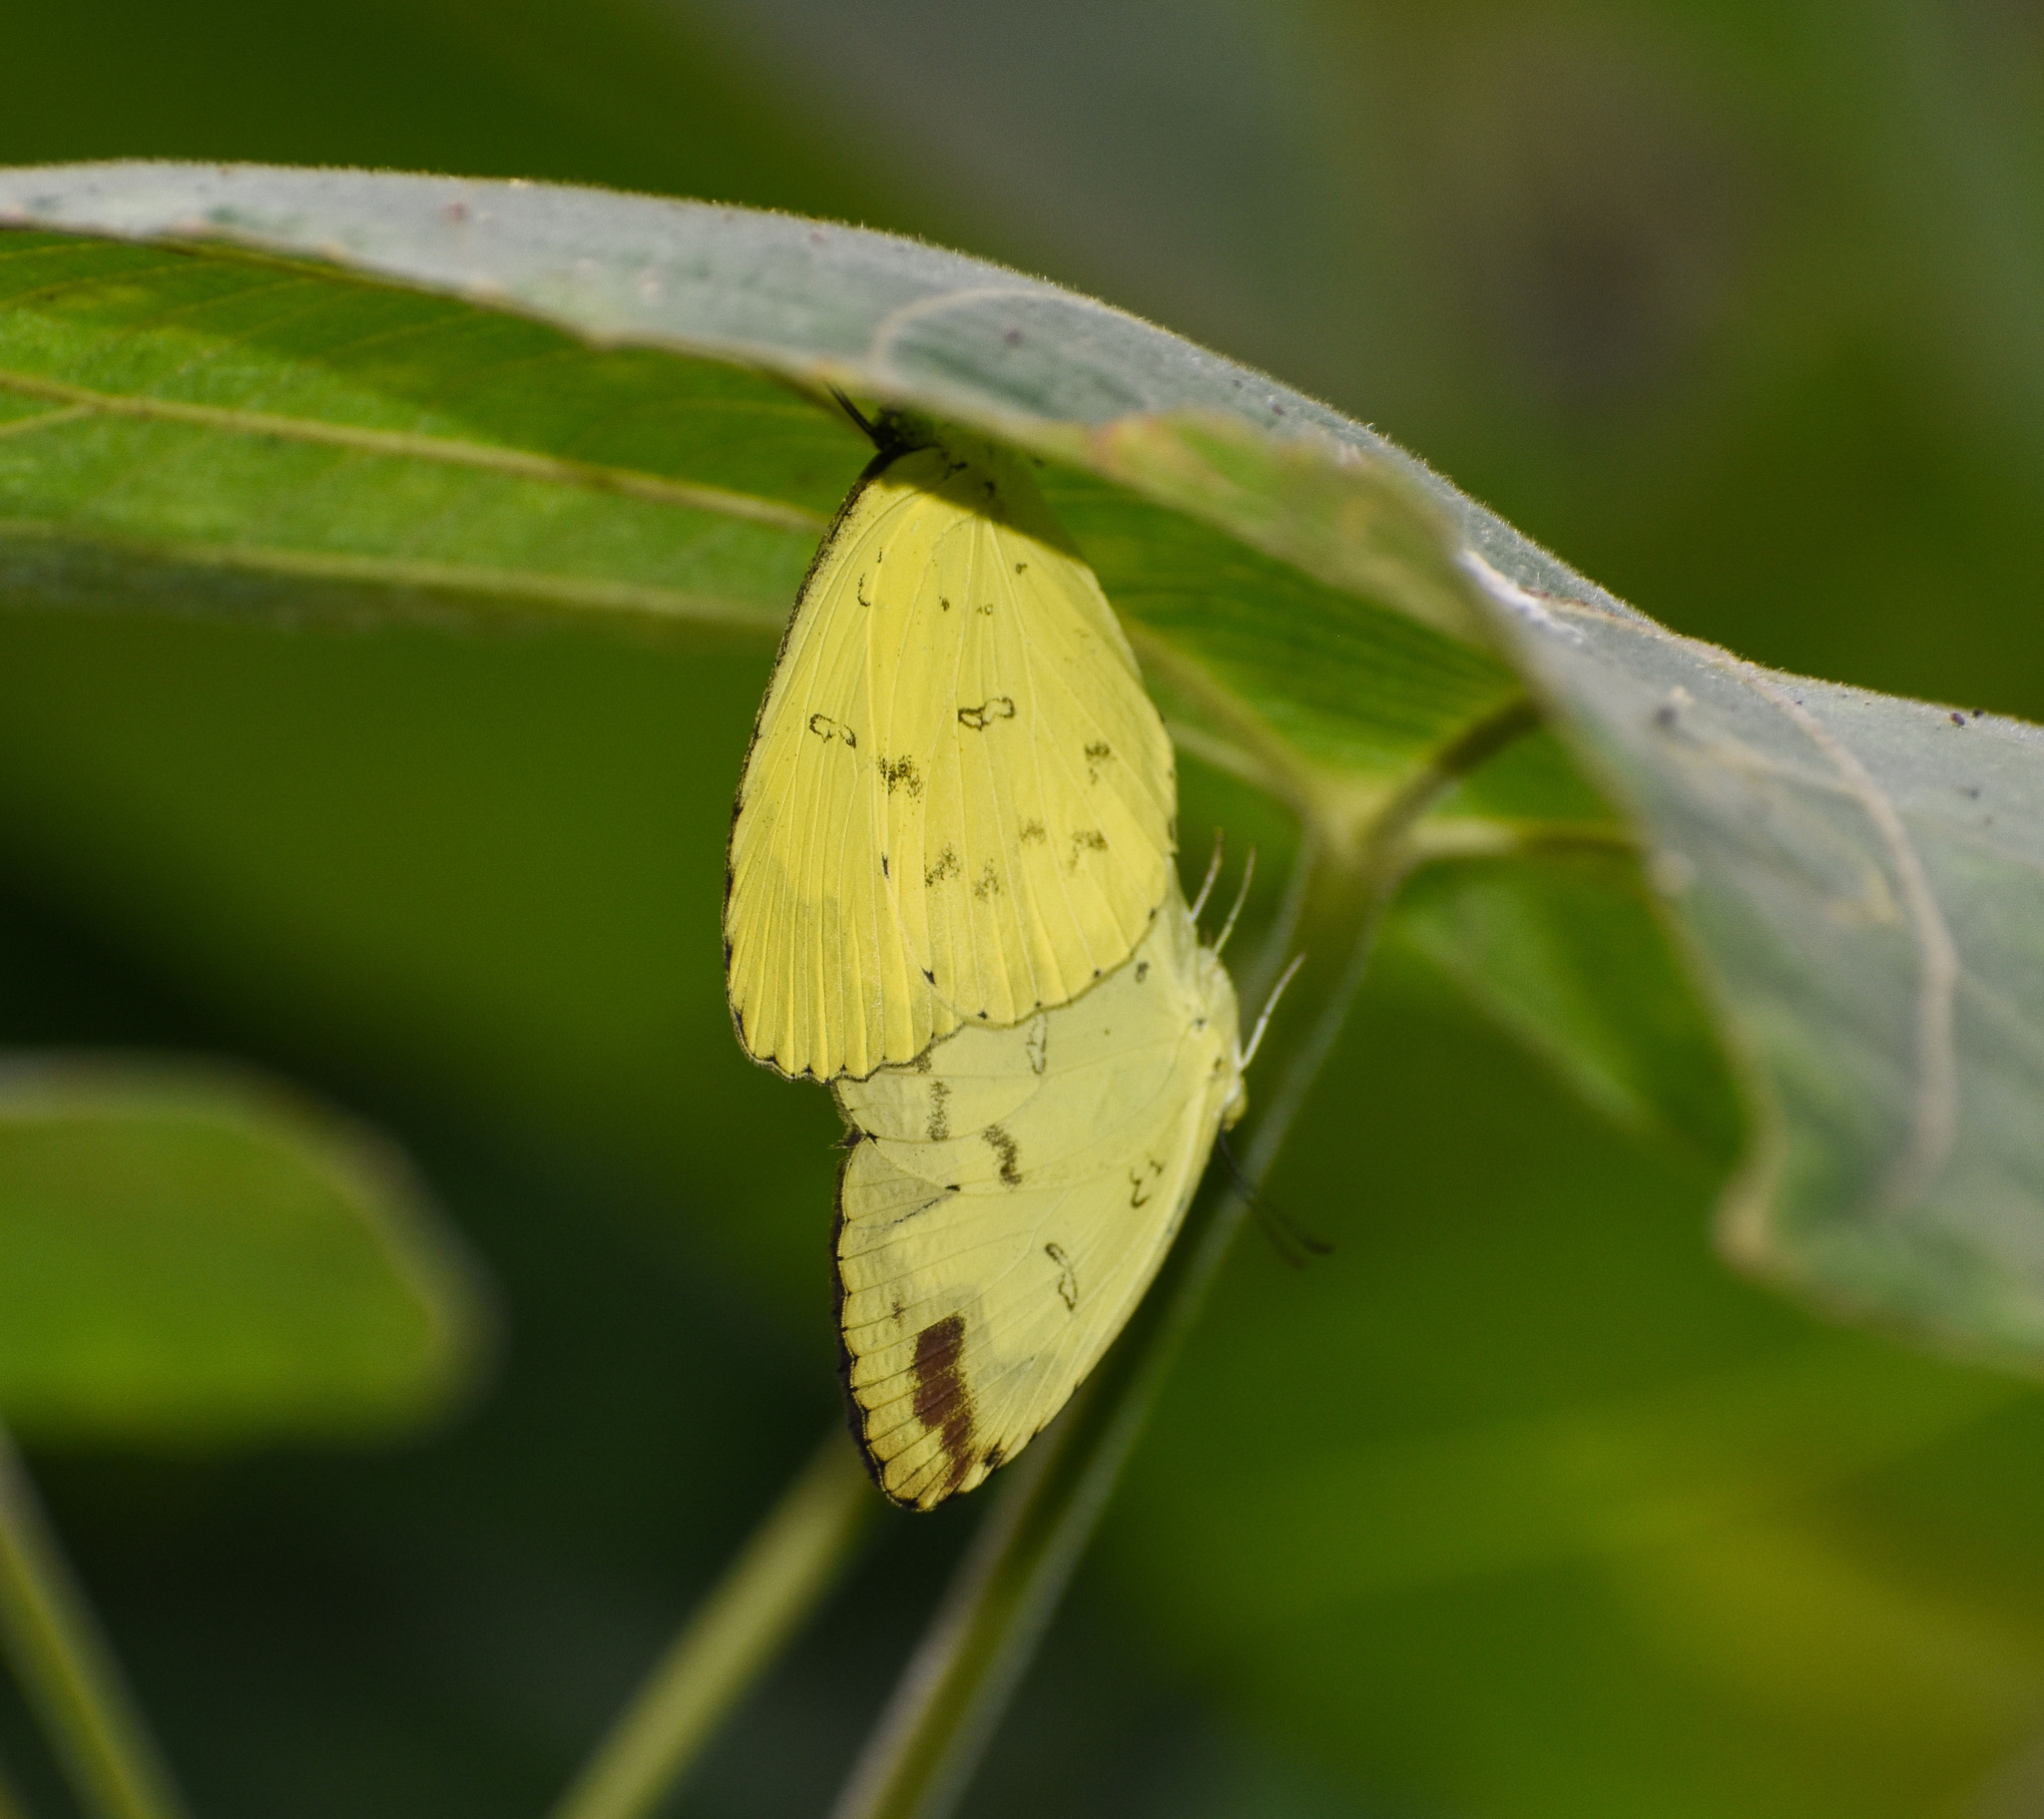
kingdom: Animalia
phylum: Arthropoda
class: Insecta
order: Lepidoptera
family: Pieridae
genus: Eurema
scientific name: Eurema hecabe
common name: Pale grass yellow
